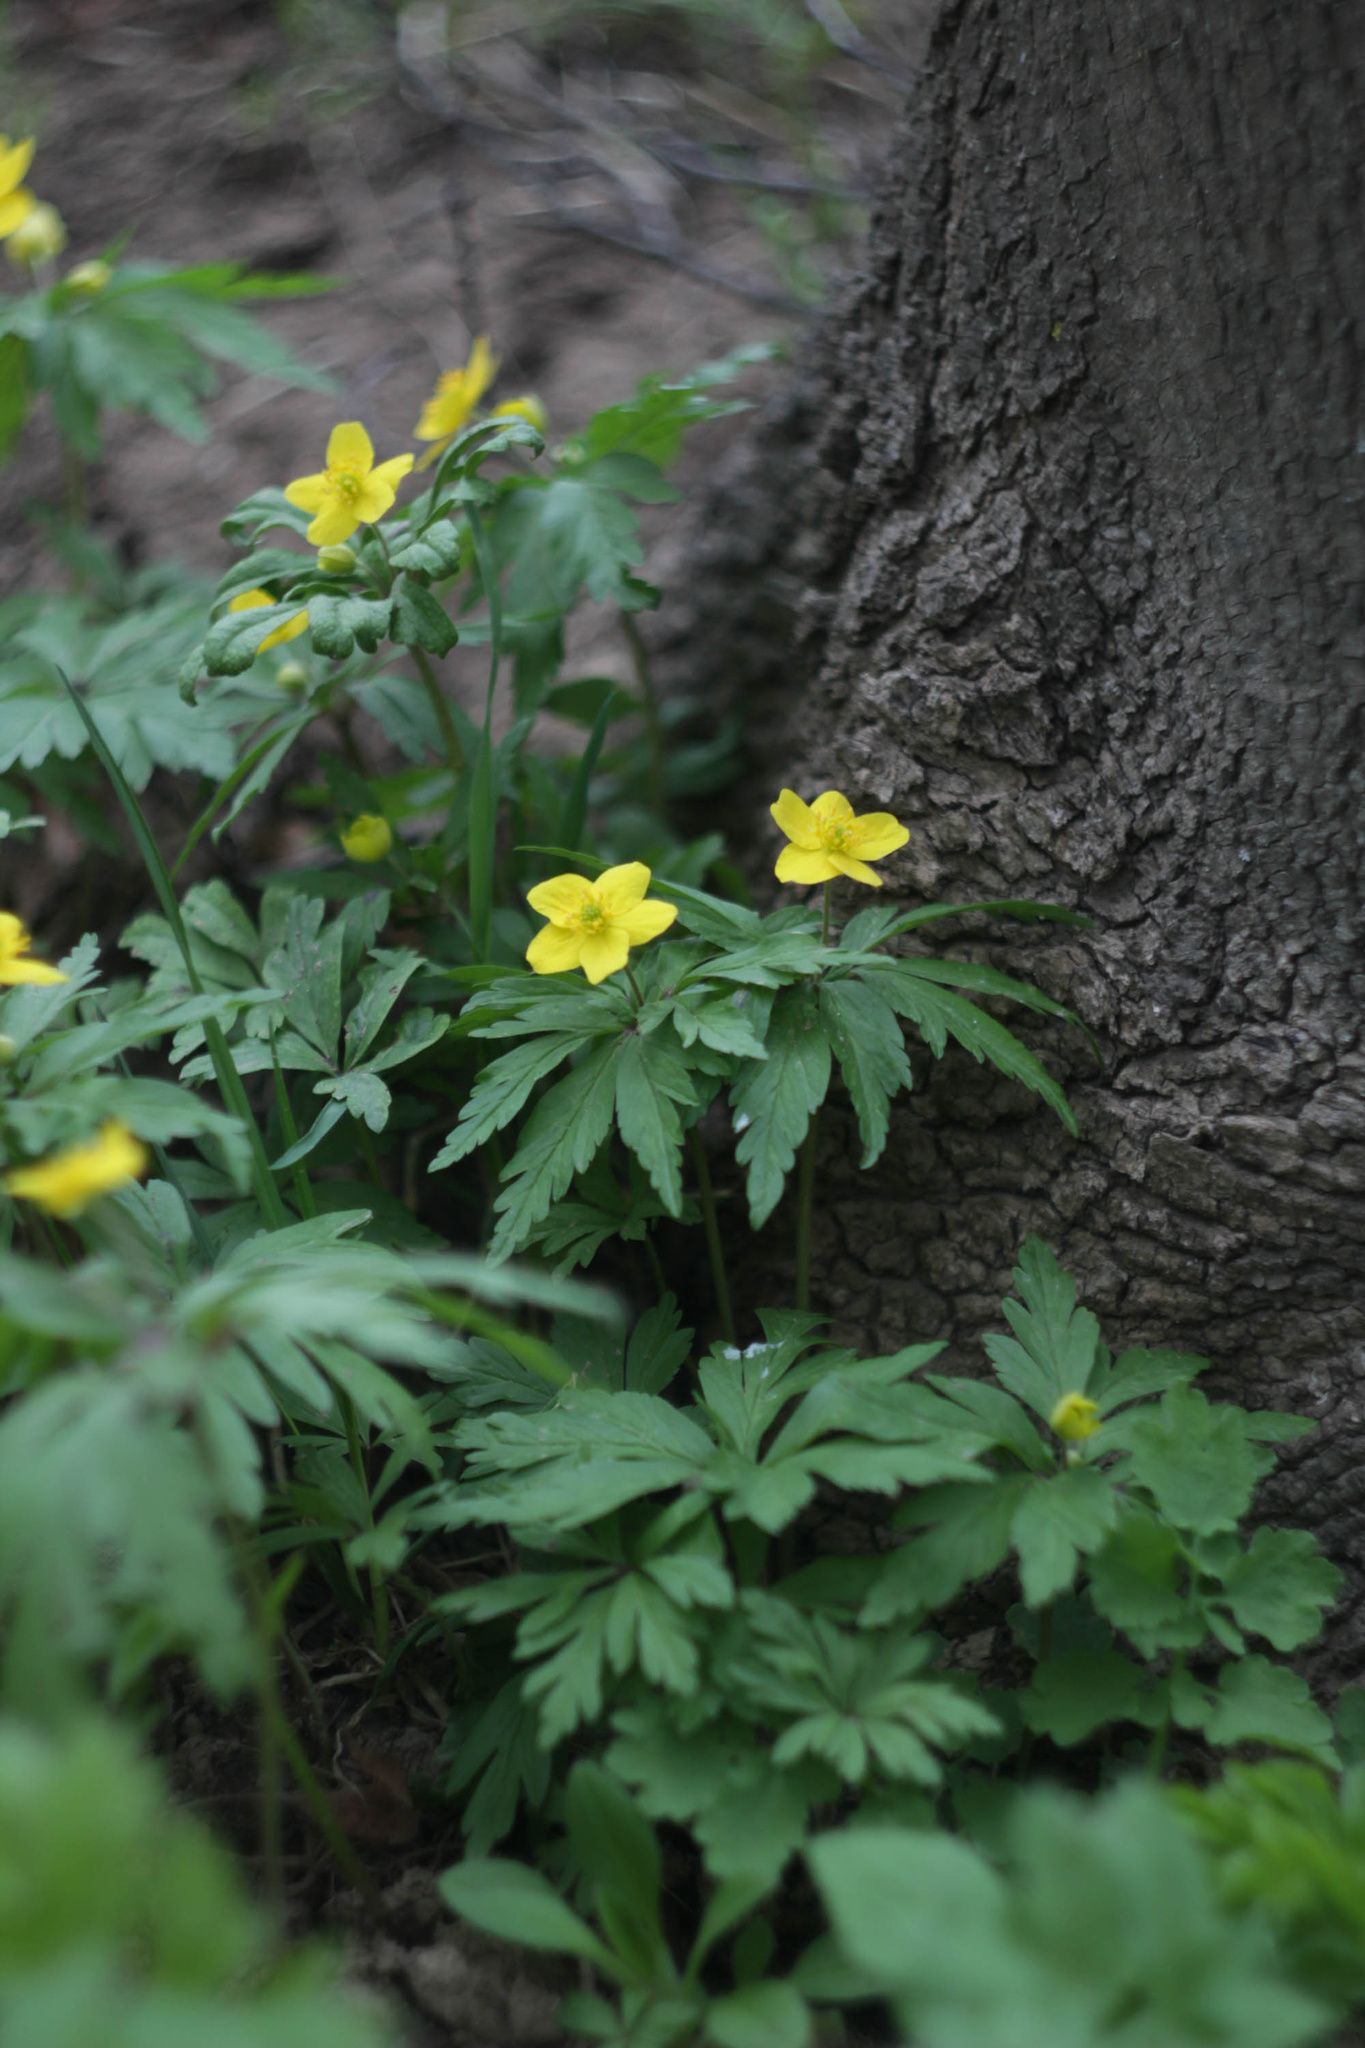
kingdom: Plantae
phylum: Tracheophyta
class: Magnoliopsida
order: Ranunculales
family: Ranunculaceae
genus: Anemone
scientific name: Anemone ranunculoides
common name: Yellow anemone
